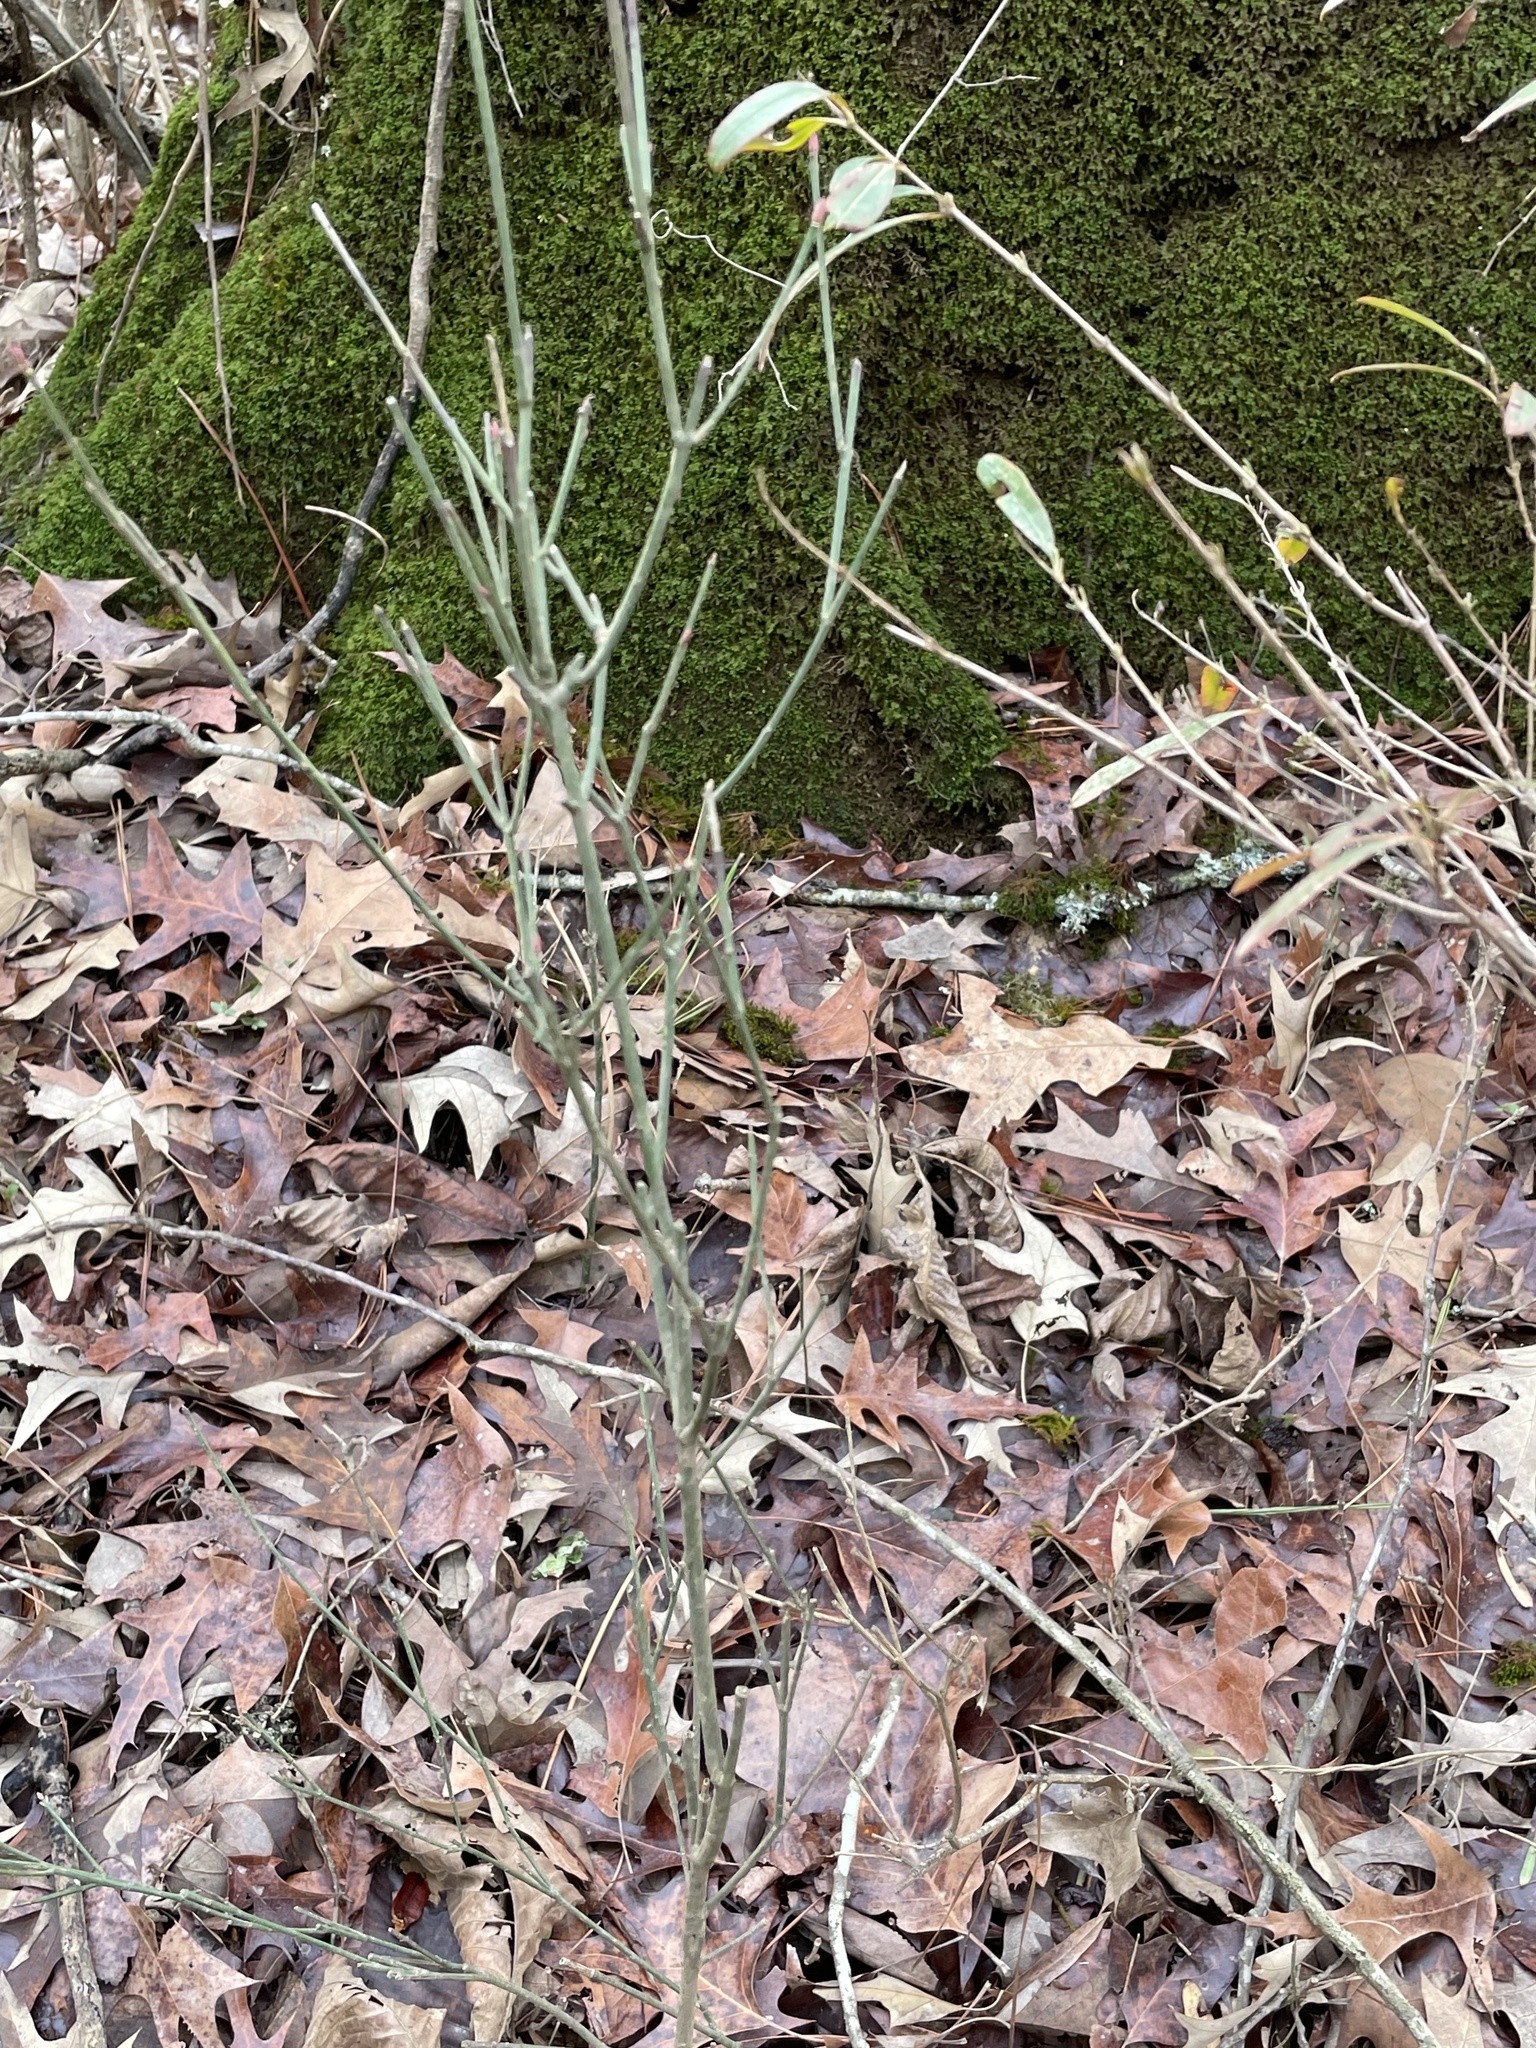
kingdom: Plantae
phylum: Tracheophyta
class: Magnoliopsida
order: Celastrales
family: Celastraceae
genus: Euonymus
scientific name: Euonymus americanus
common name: Bursting-heart
